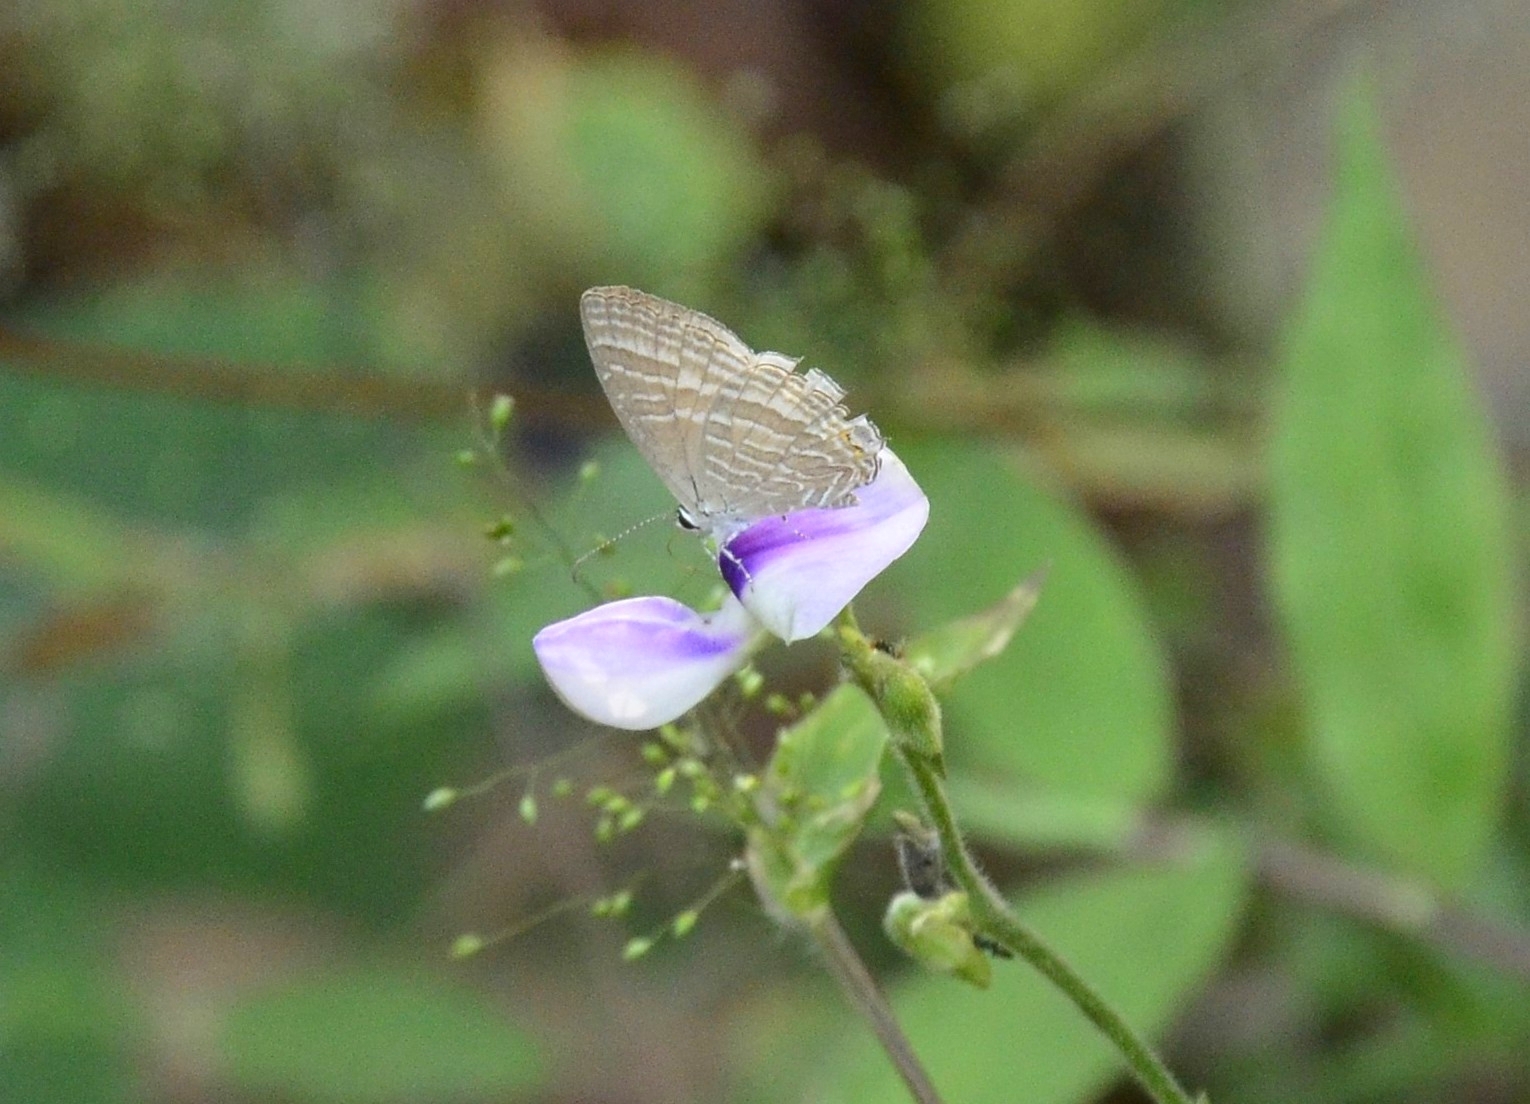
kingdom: Animalia
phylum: Arthropoda
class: Insecta
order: Lepidoptera
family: Lycaenidae
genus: Jamides
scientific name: Jamides celeno
